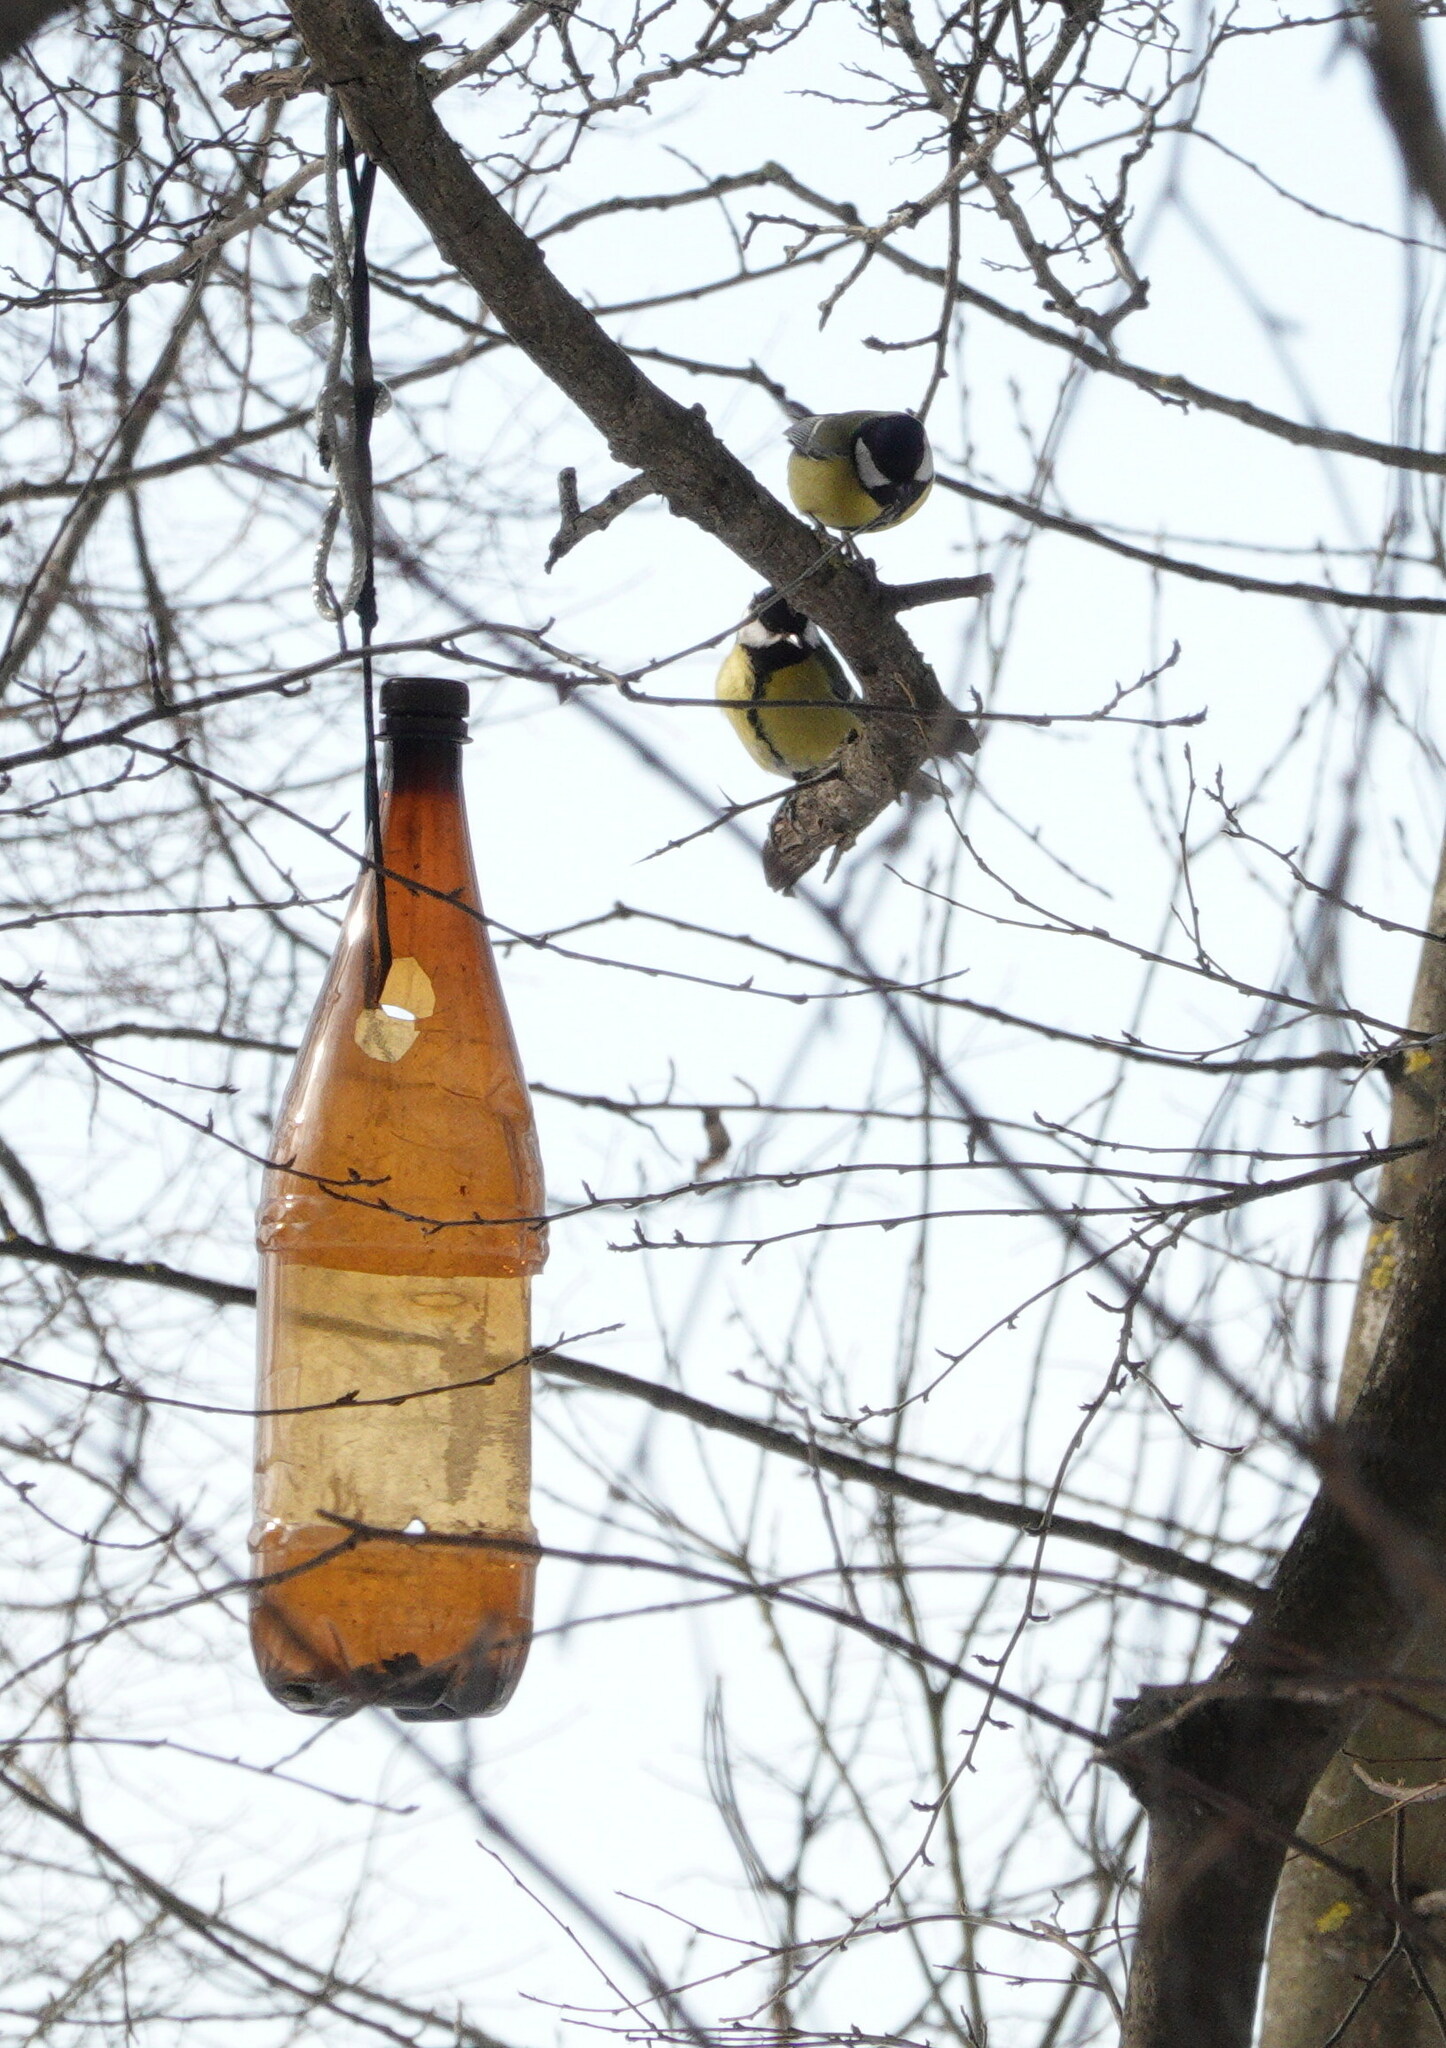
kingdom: Animalia
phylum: Chordata
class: Aves
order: Passeriformes
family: Paridae
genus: Parus
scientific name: Parus major
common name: Great tit
